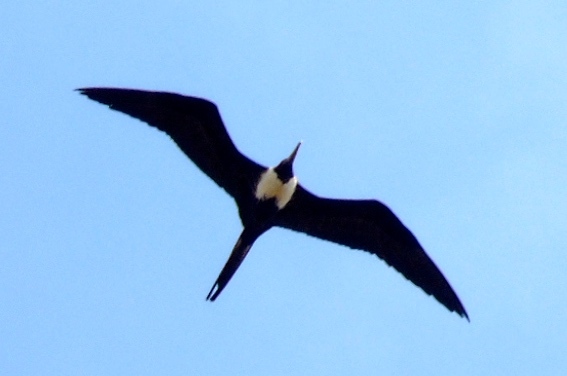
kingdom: Animalia
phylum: Chordata
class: Aves
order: Suliformes
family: Fregatidae
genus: Fregata
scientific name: Fregata magnificens
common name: Magnificent frigatebird
